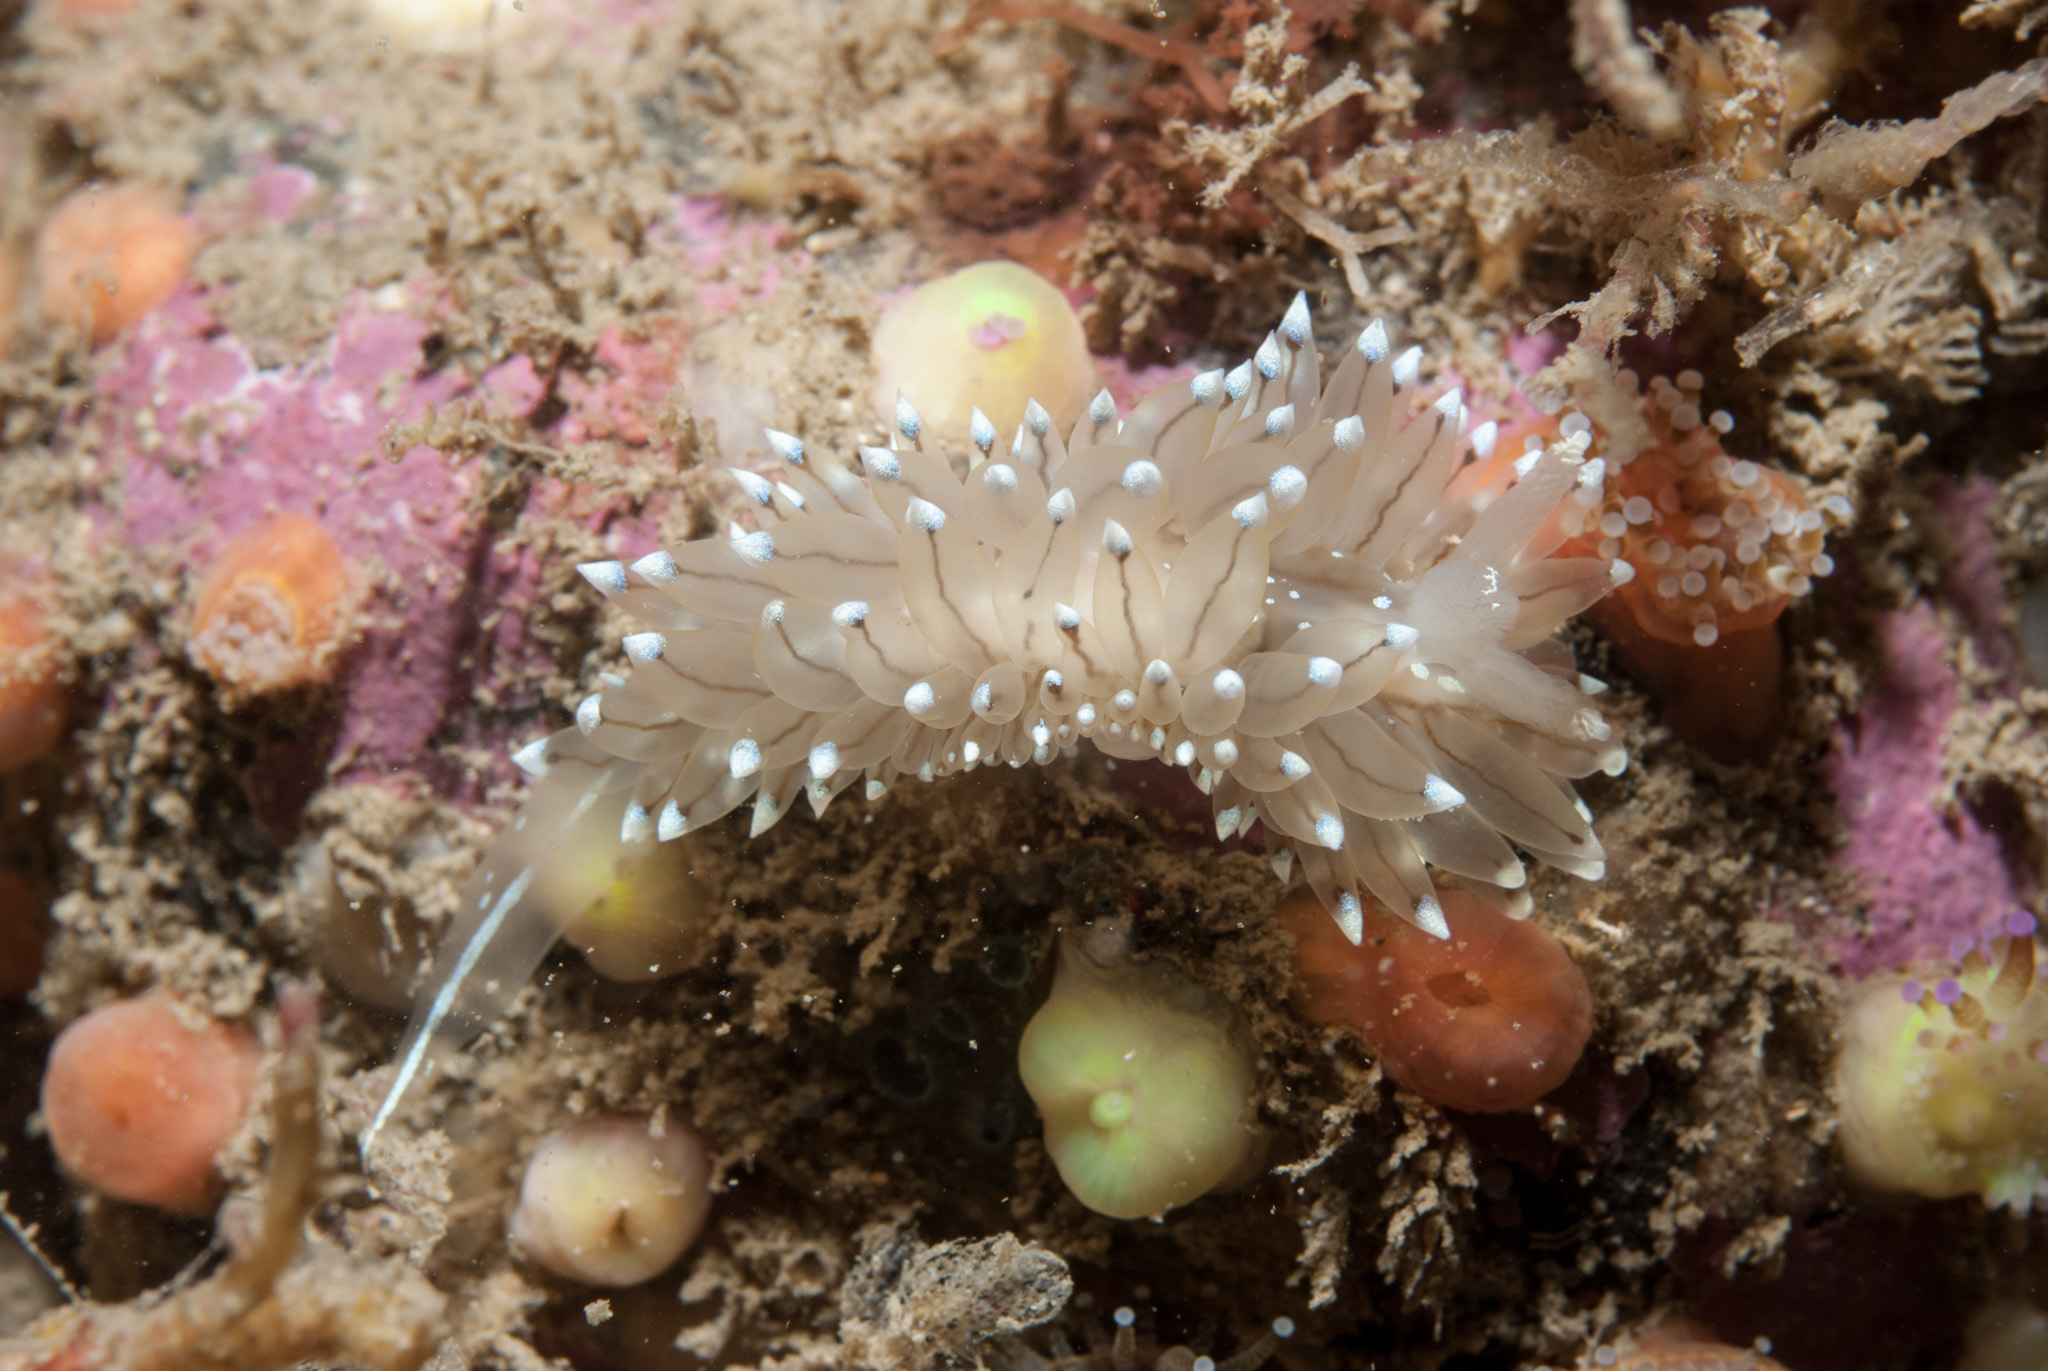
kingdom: Animalia
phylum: Mollusca
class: Gastropoda
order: Nudibranchia
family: Janolidae
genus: Antiopella
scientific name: Antiopella cristata
